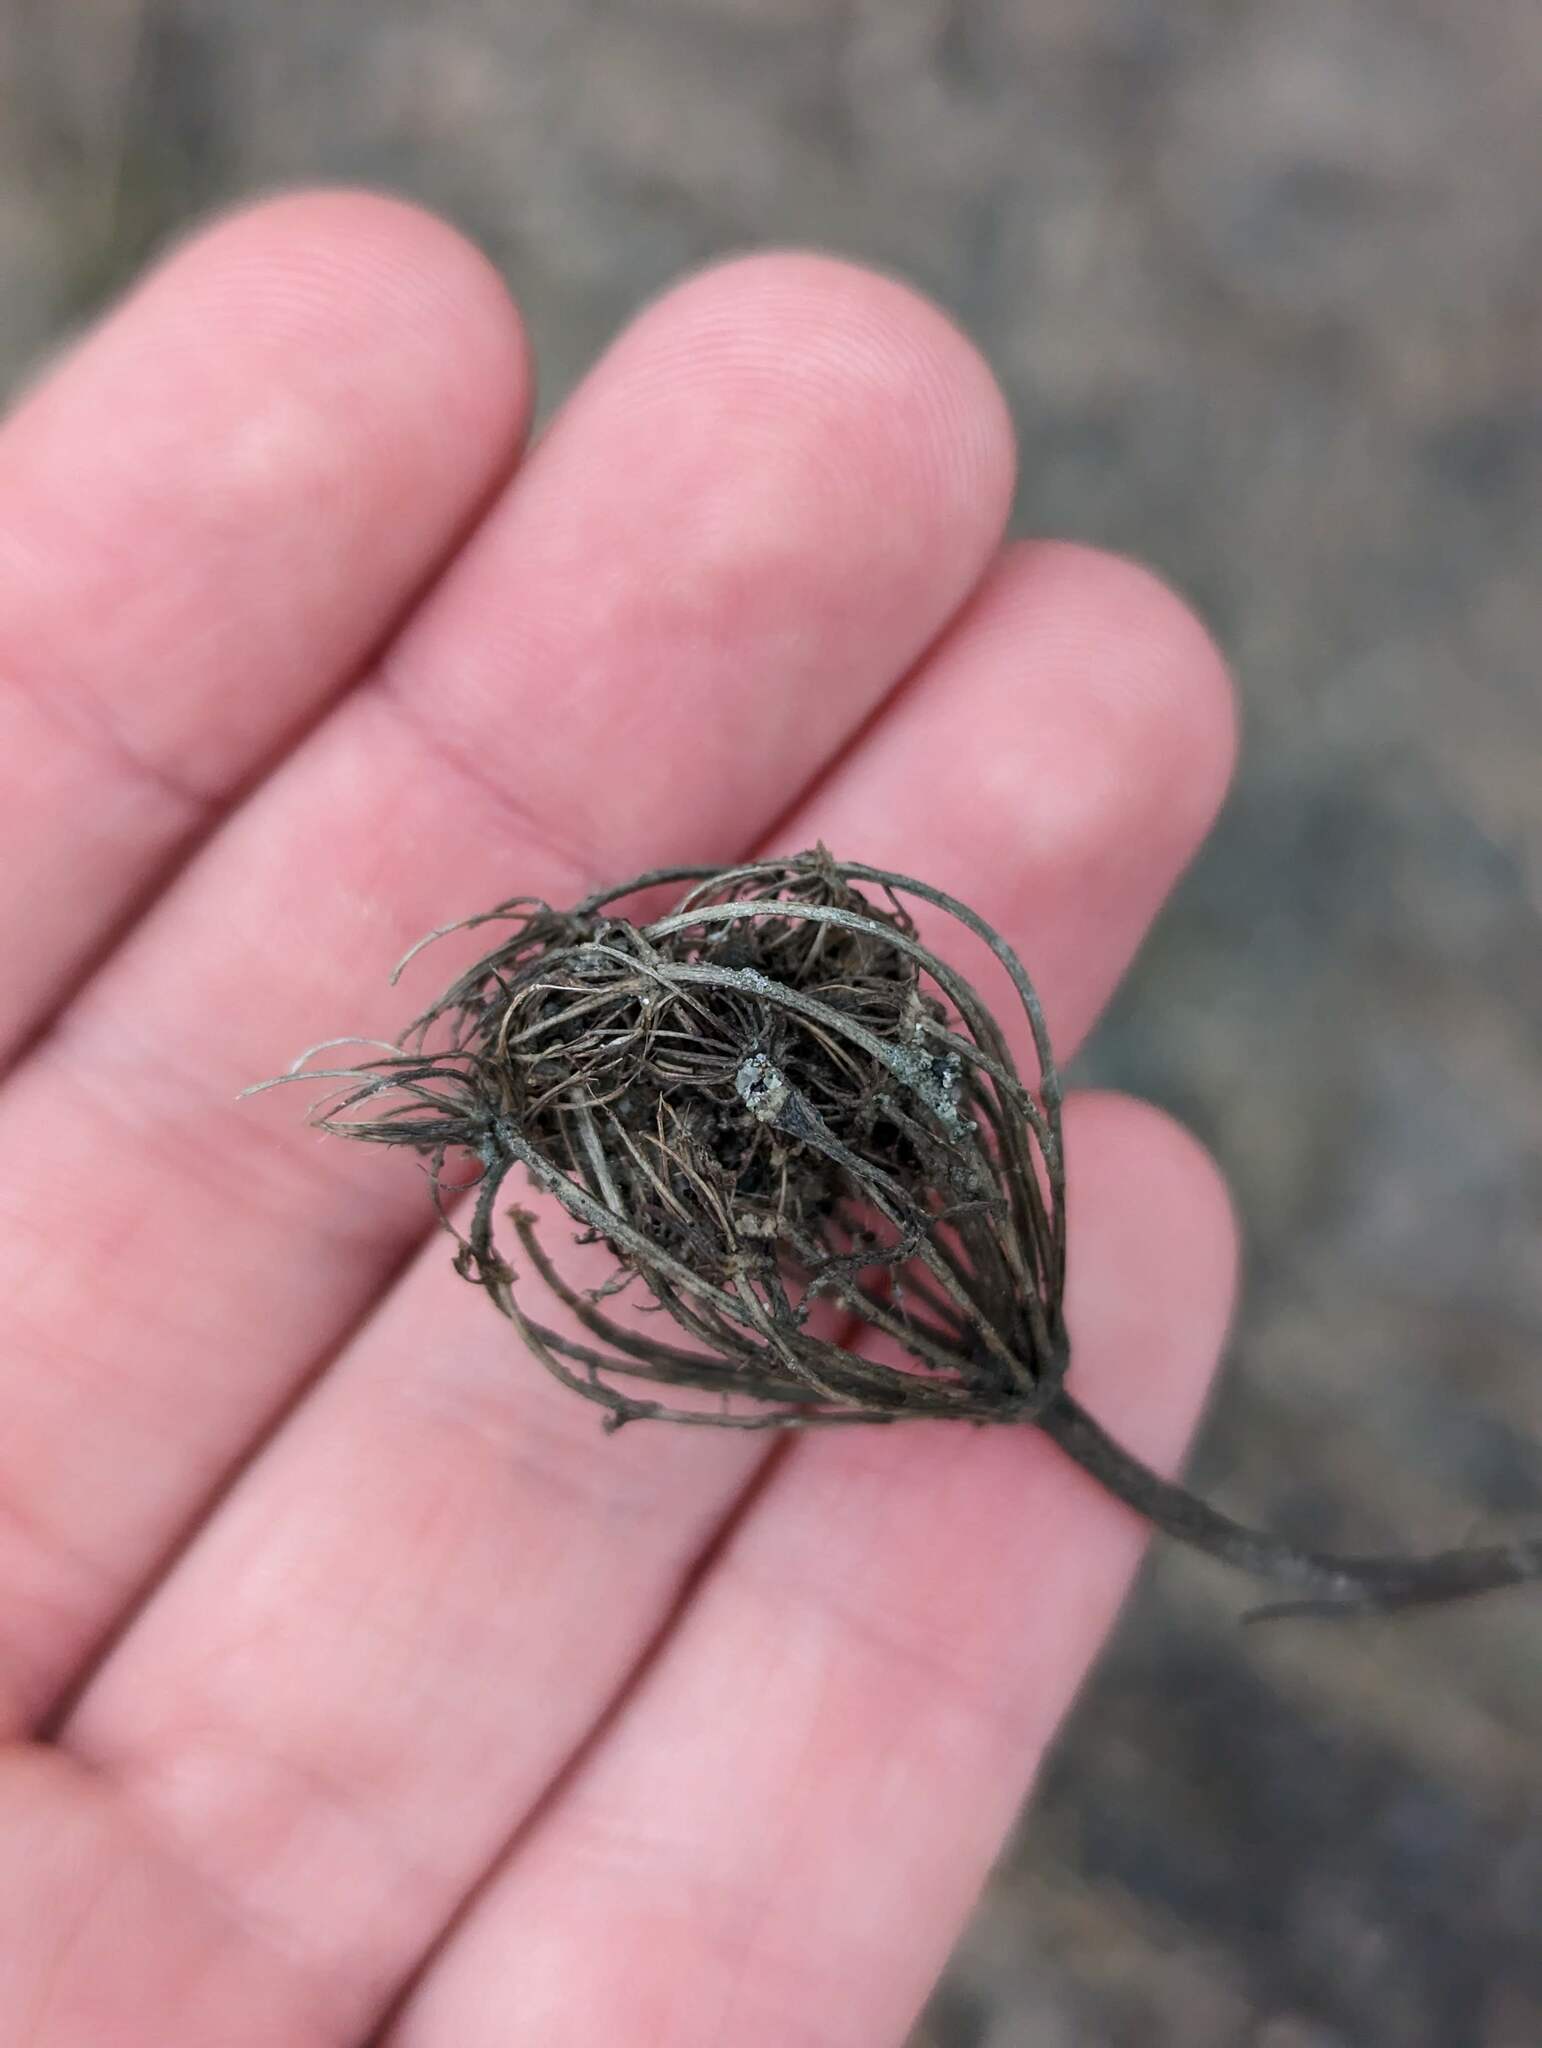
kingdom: Plantae
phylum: Tracheophyta
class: Magnoliopsida
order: Apiales
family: Apiaceae
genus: Daucus
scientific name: Daucus carota
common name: Wild carrot
